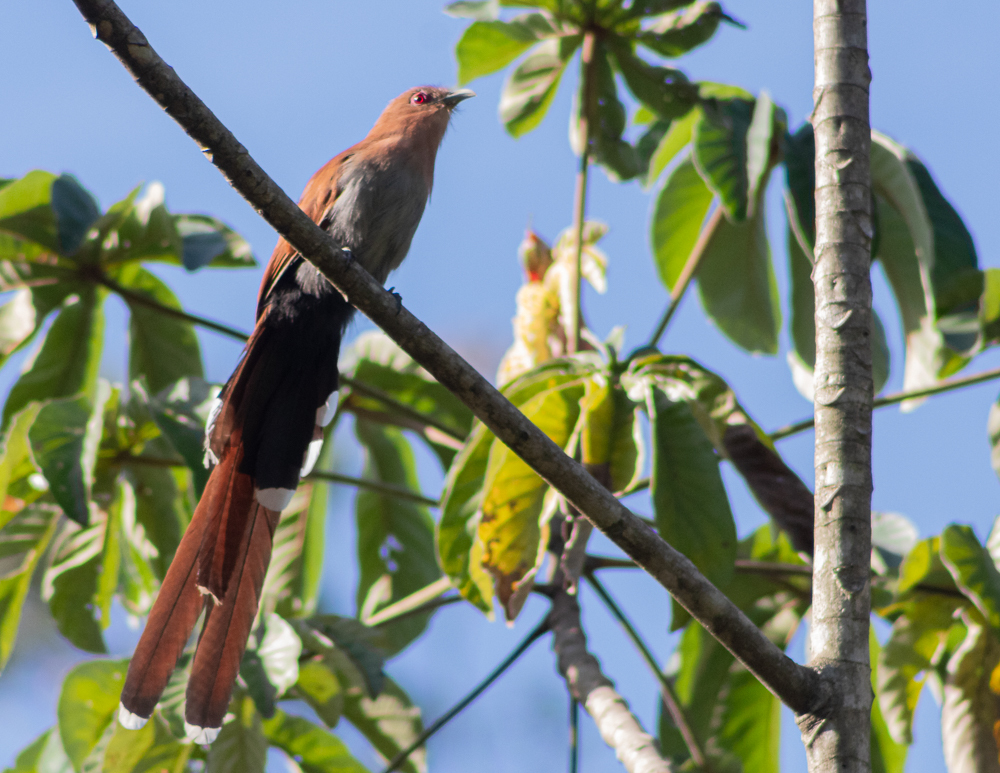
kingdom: Animalia
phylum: Chordata
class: Aves
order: Cuculiformes
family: Cuculidae
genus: Piaya
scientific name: Piaya cayana
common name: Squirrel cuckoo
